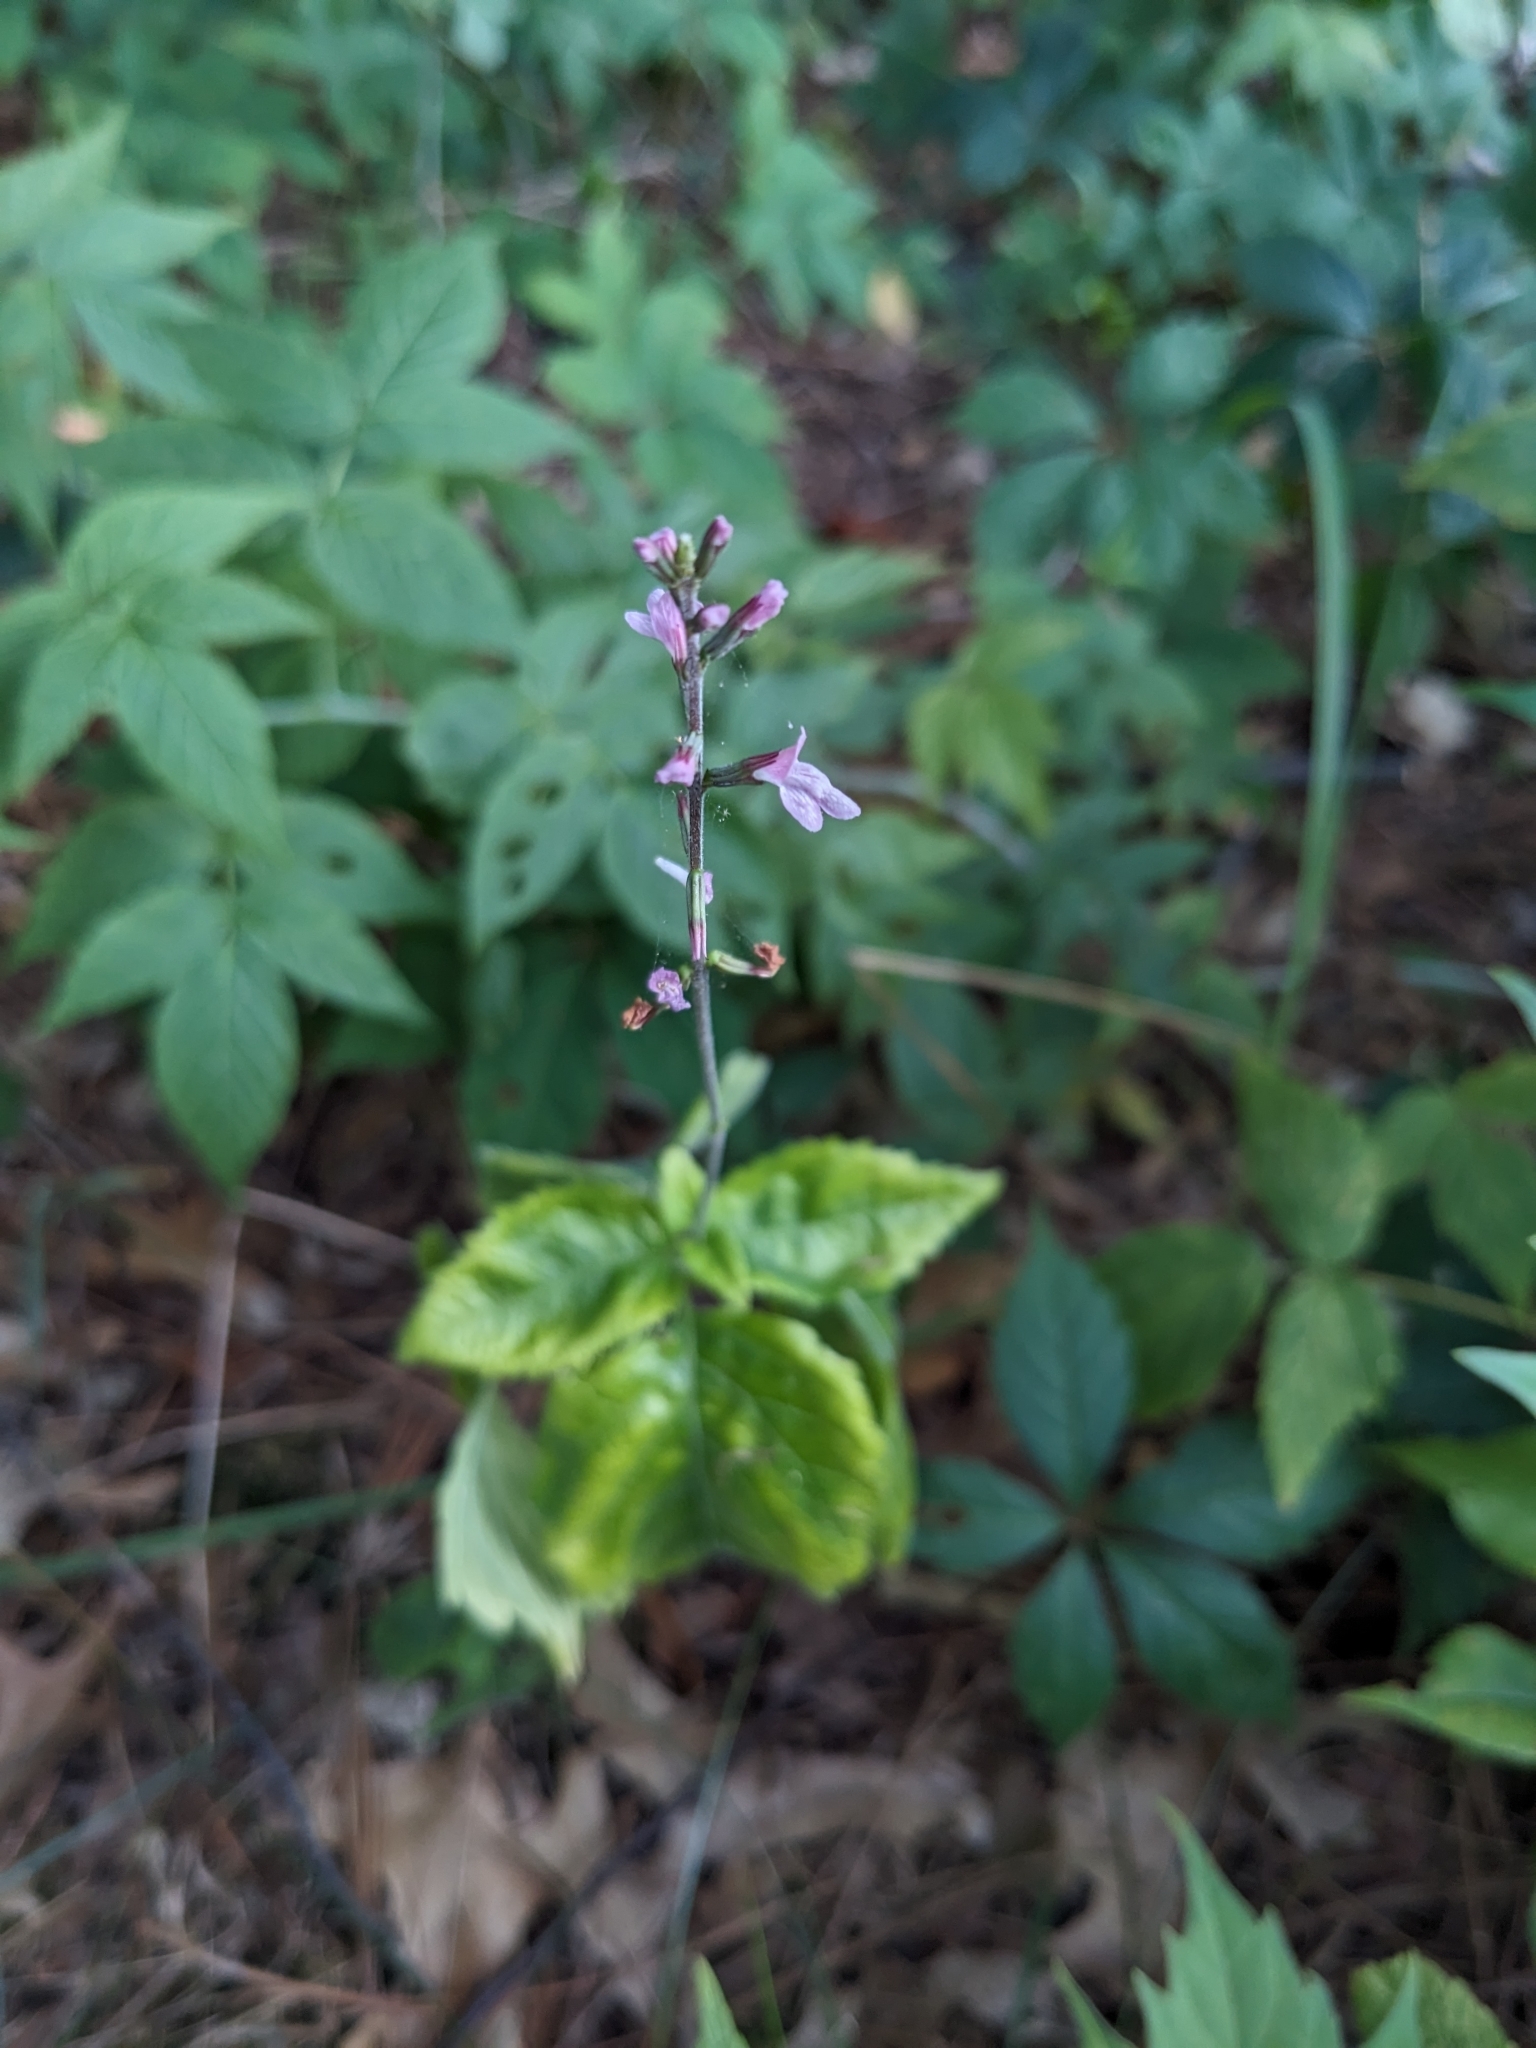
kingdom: Plantae
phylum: Tracheophyta
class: Magnoliopsida
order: Lamiales
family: Phrymaceae
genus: Phryma
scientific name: Phryma leptostachya
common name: American lopseed
